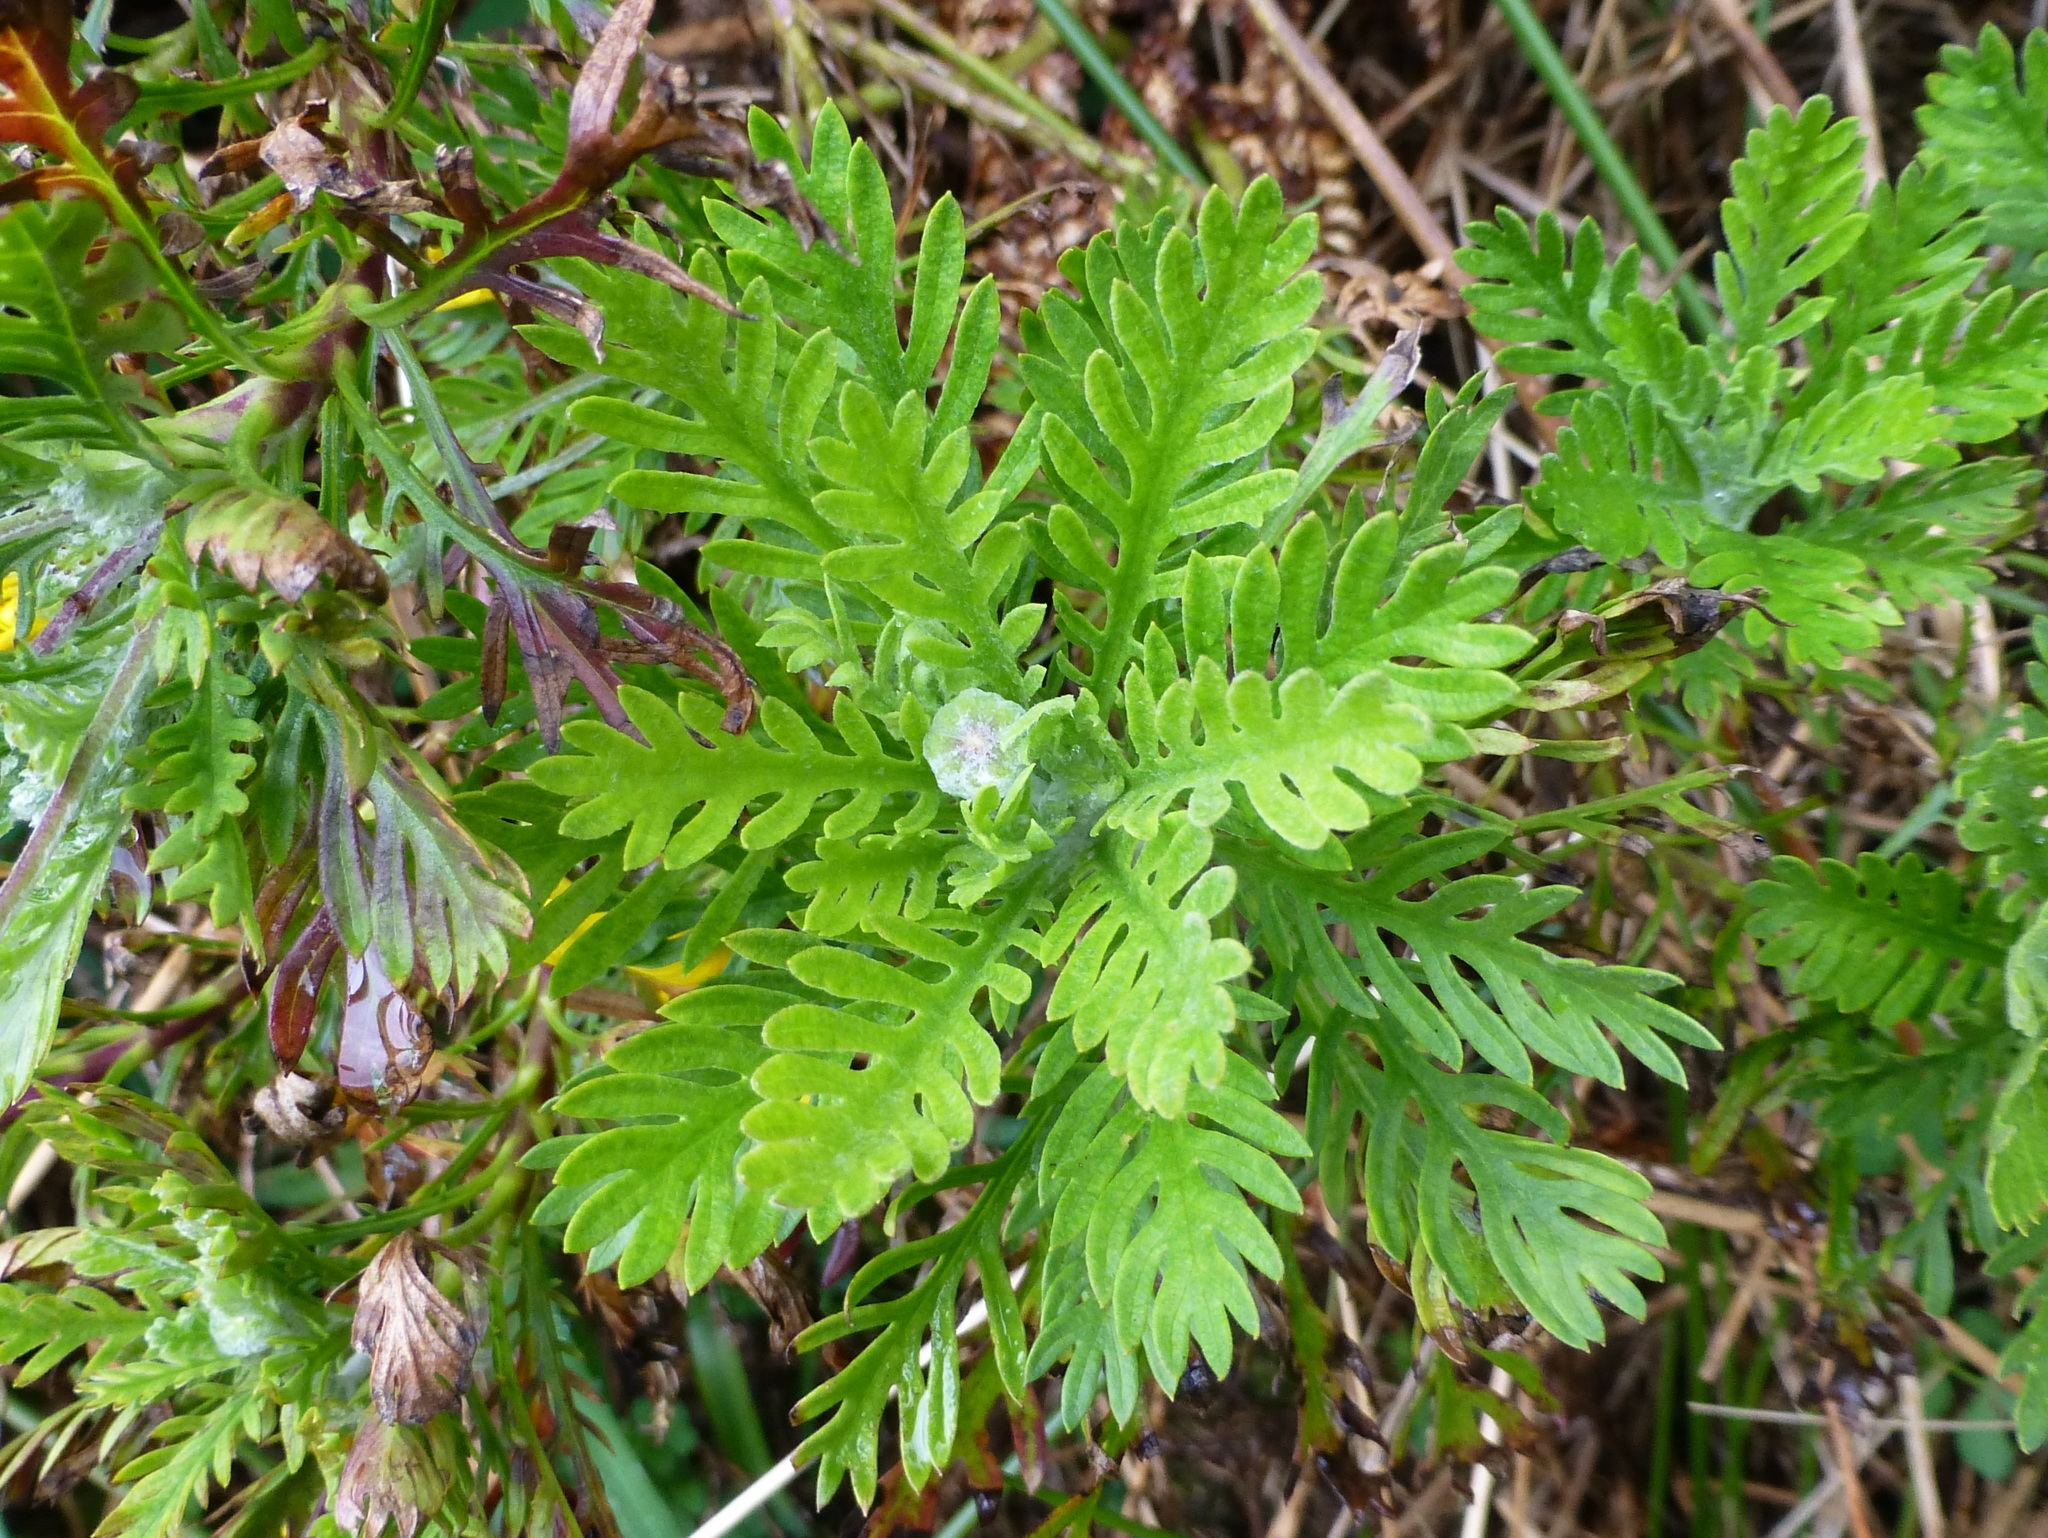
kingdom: Plantae
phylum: Tracheophyta
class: Magnoliopsida
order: Asterales
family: Asteraceae
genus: Euryops
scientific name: Euryops pectinatus
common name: Gray-leaf euryops
